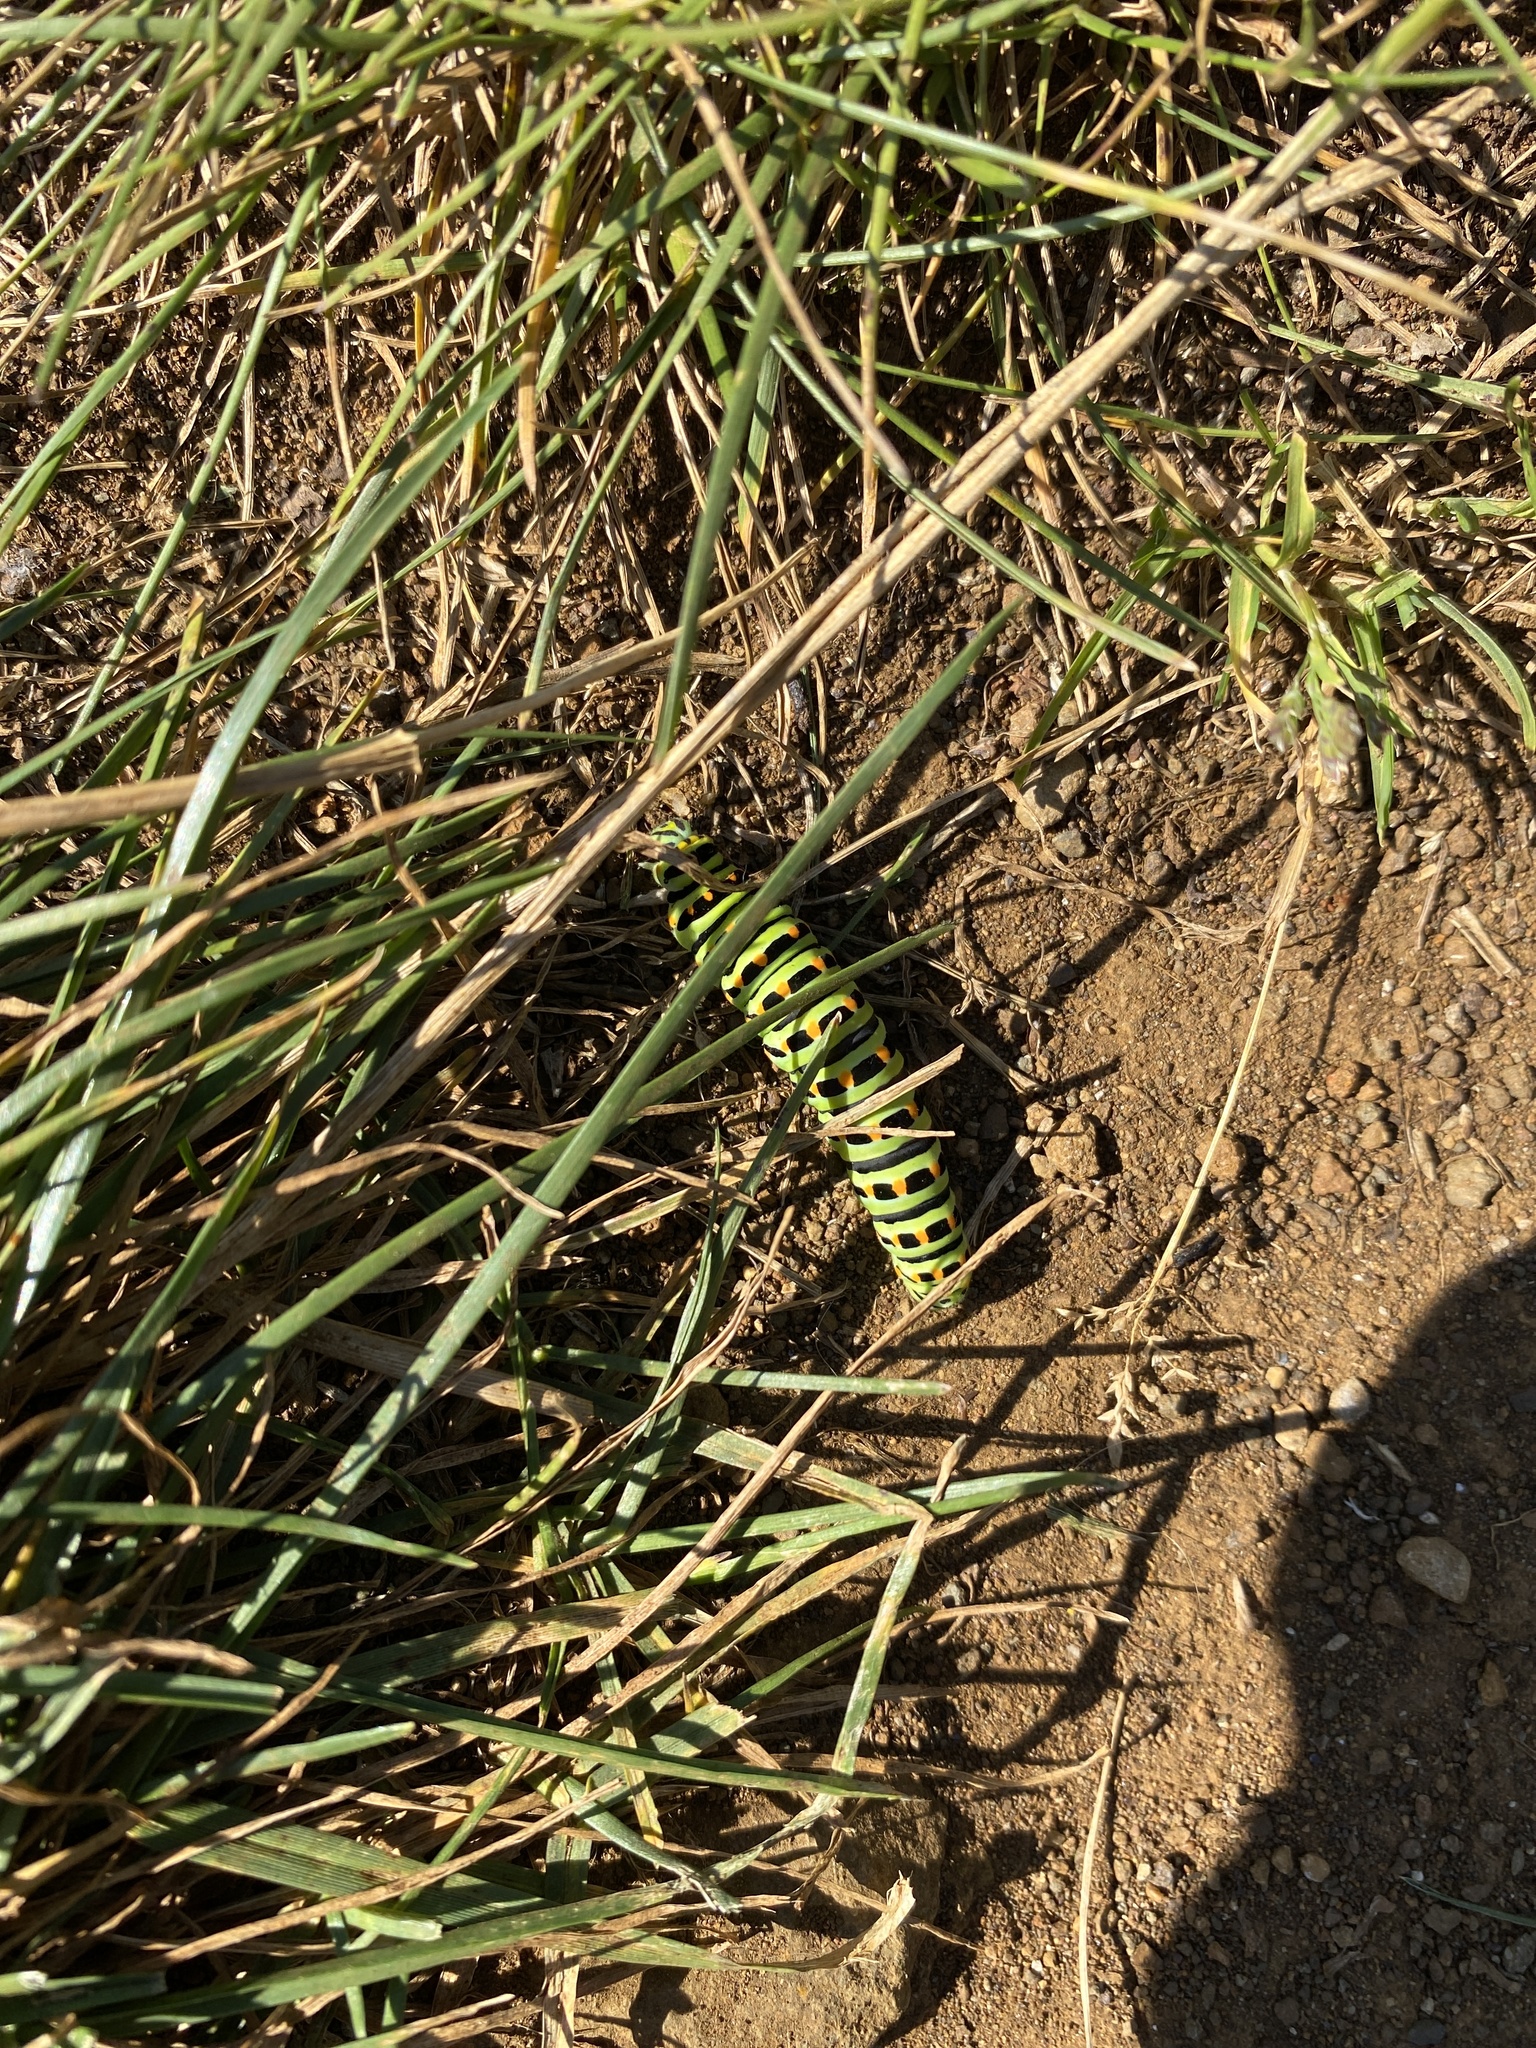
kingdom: Animalia
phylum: Arthropoda
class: Insecta
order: Lepidoptera
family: Papilionidae
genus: Papilio
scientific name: Papilio machaon
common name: Swallowtail
